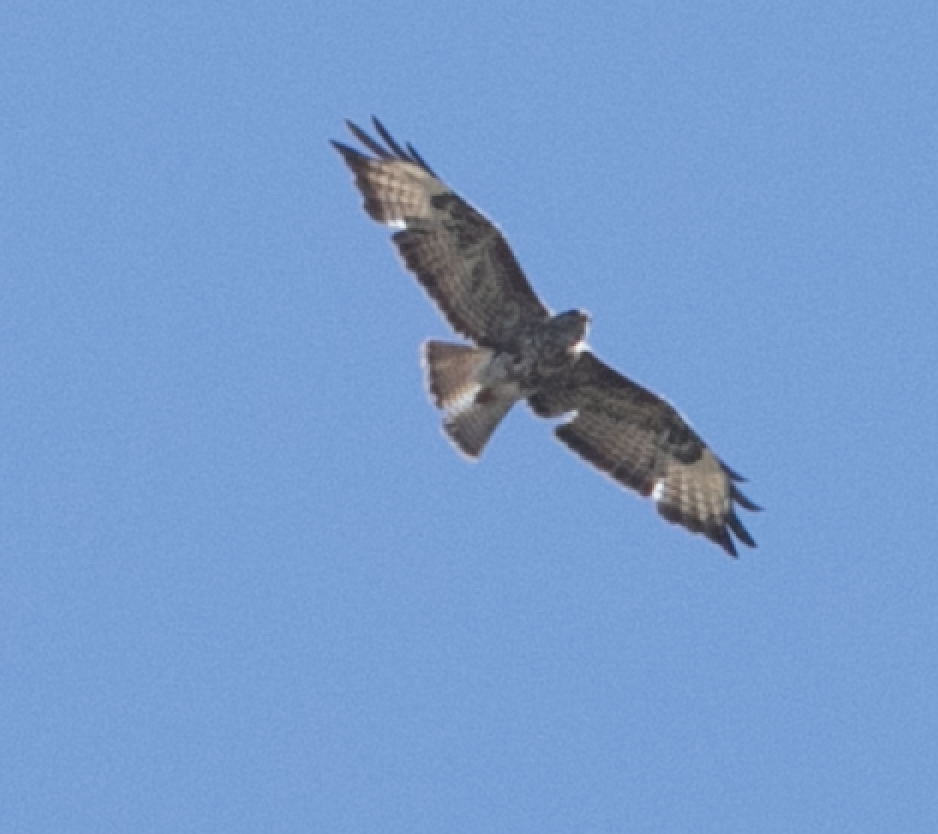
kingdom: Animalia
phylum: Chordata
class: Aves
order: Accipitriformes
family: Accipitridae
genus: Buteo
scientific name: Buteo buteo
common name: Common buzzard
